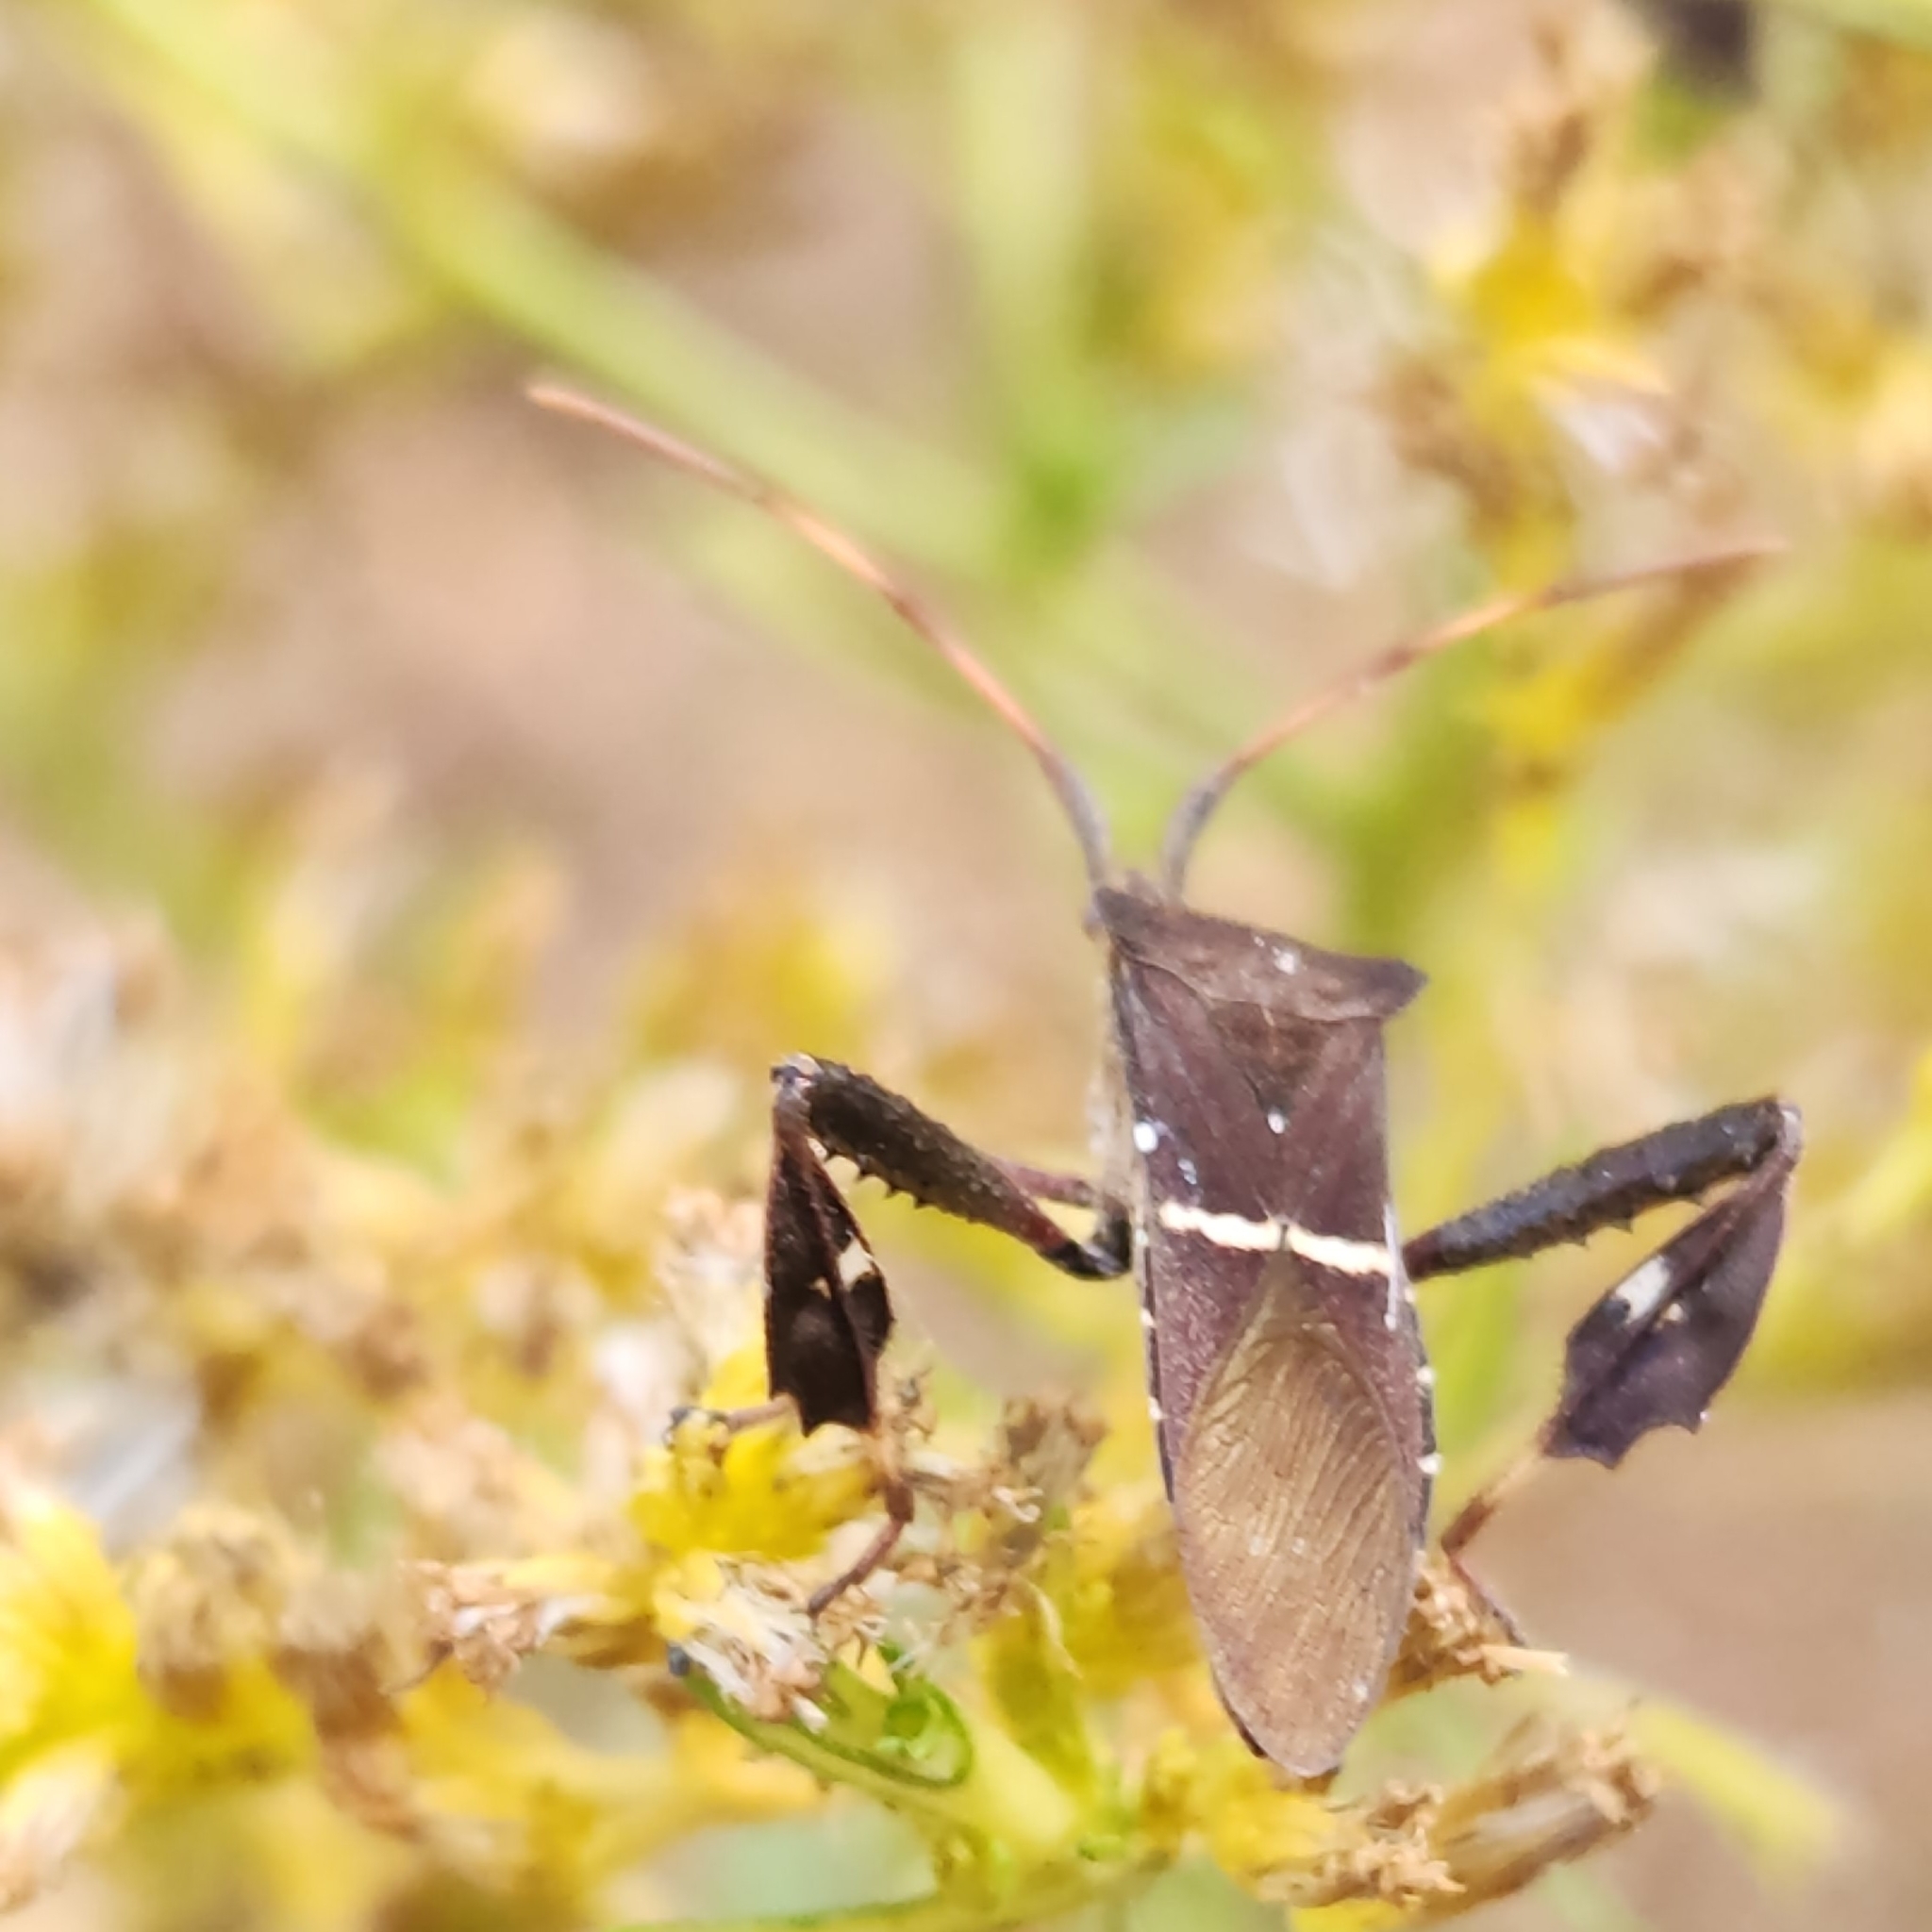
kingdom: Animalia
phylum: Arthropoda
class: Insecta
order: Hemiptera
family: Coreidae
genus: Leptoglossus
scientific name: Leptoglossus phyllopus
